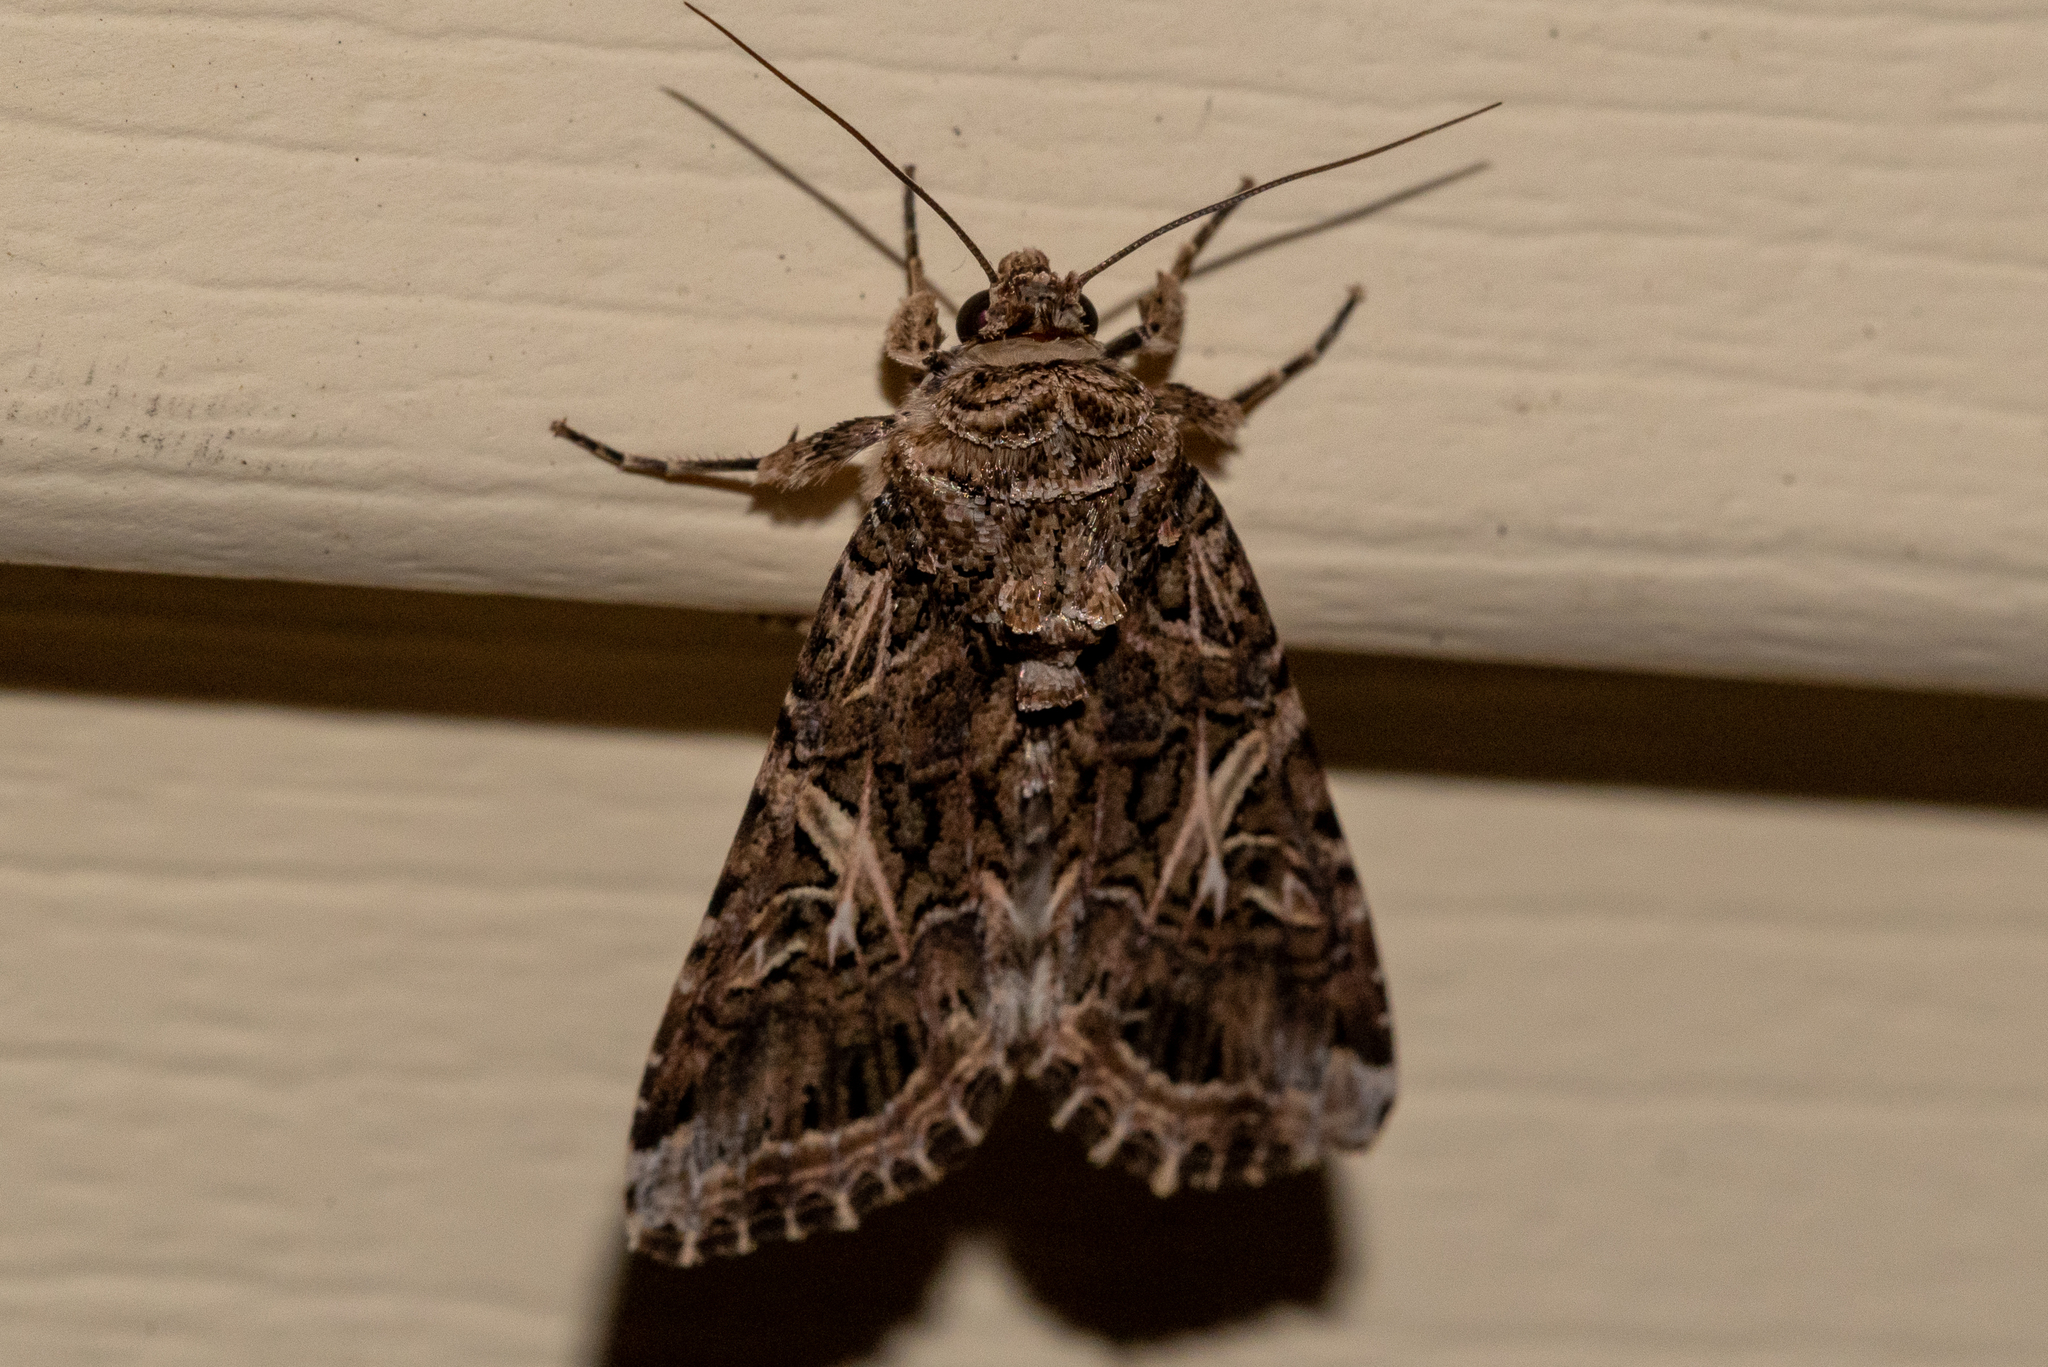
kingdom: Animalia
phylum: Arthropoda
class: Insecta
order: Lepidoptera
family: Noctuidae
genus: Spodoptera
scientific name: Spodoptera ornithogalli
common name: Yellow-striped armyworm
